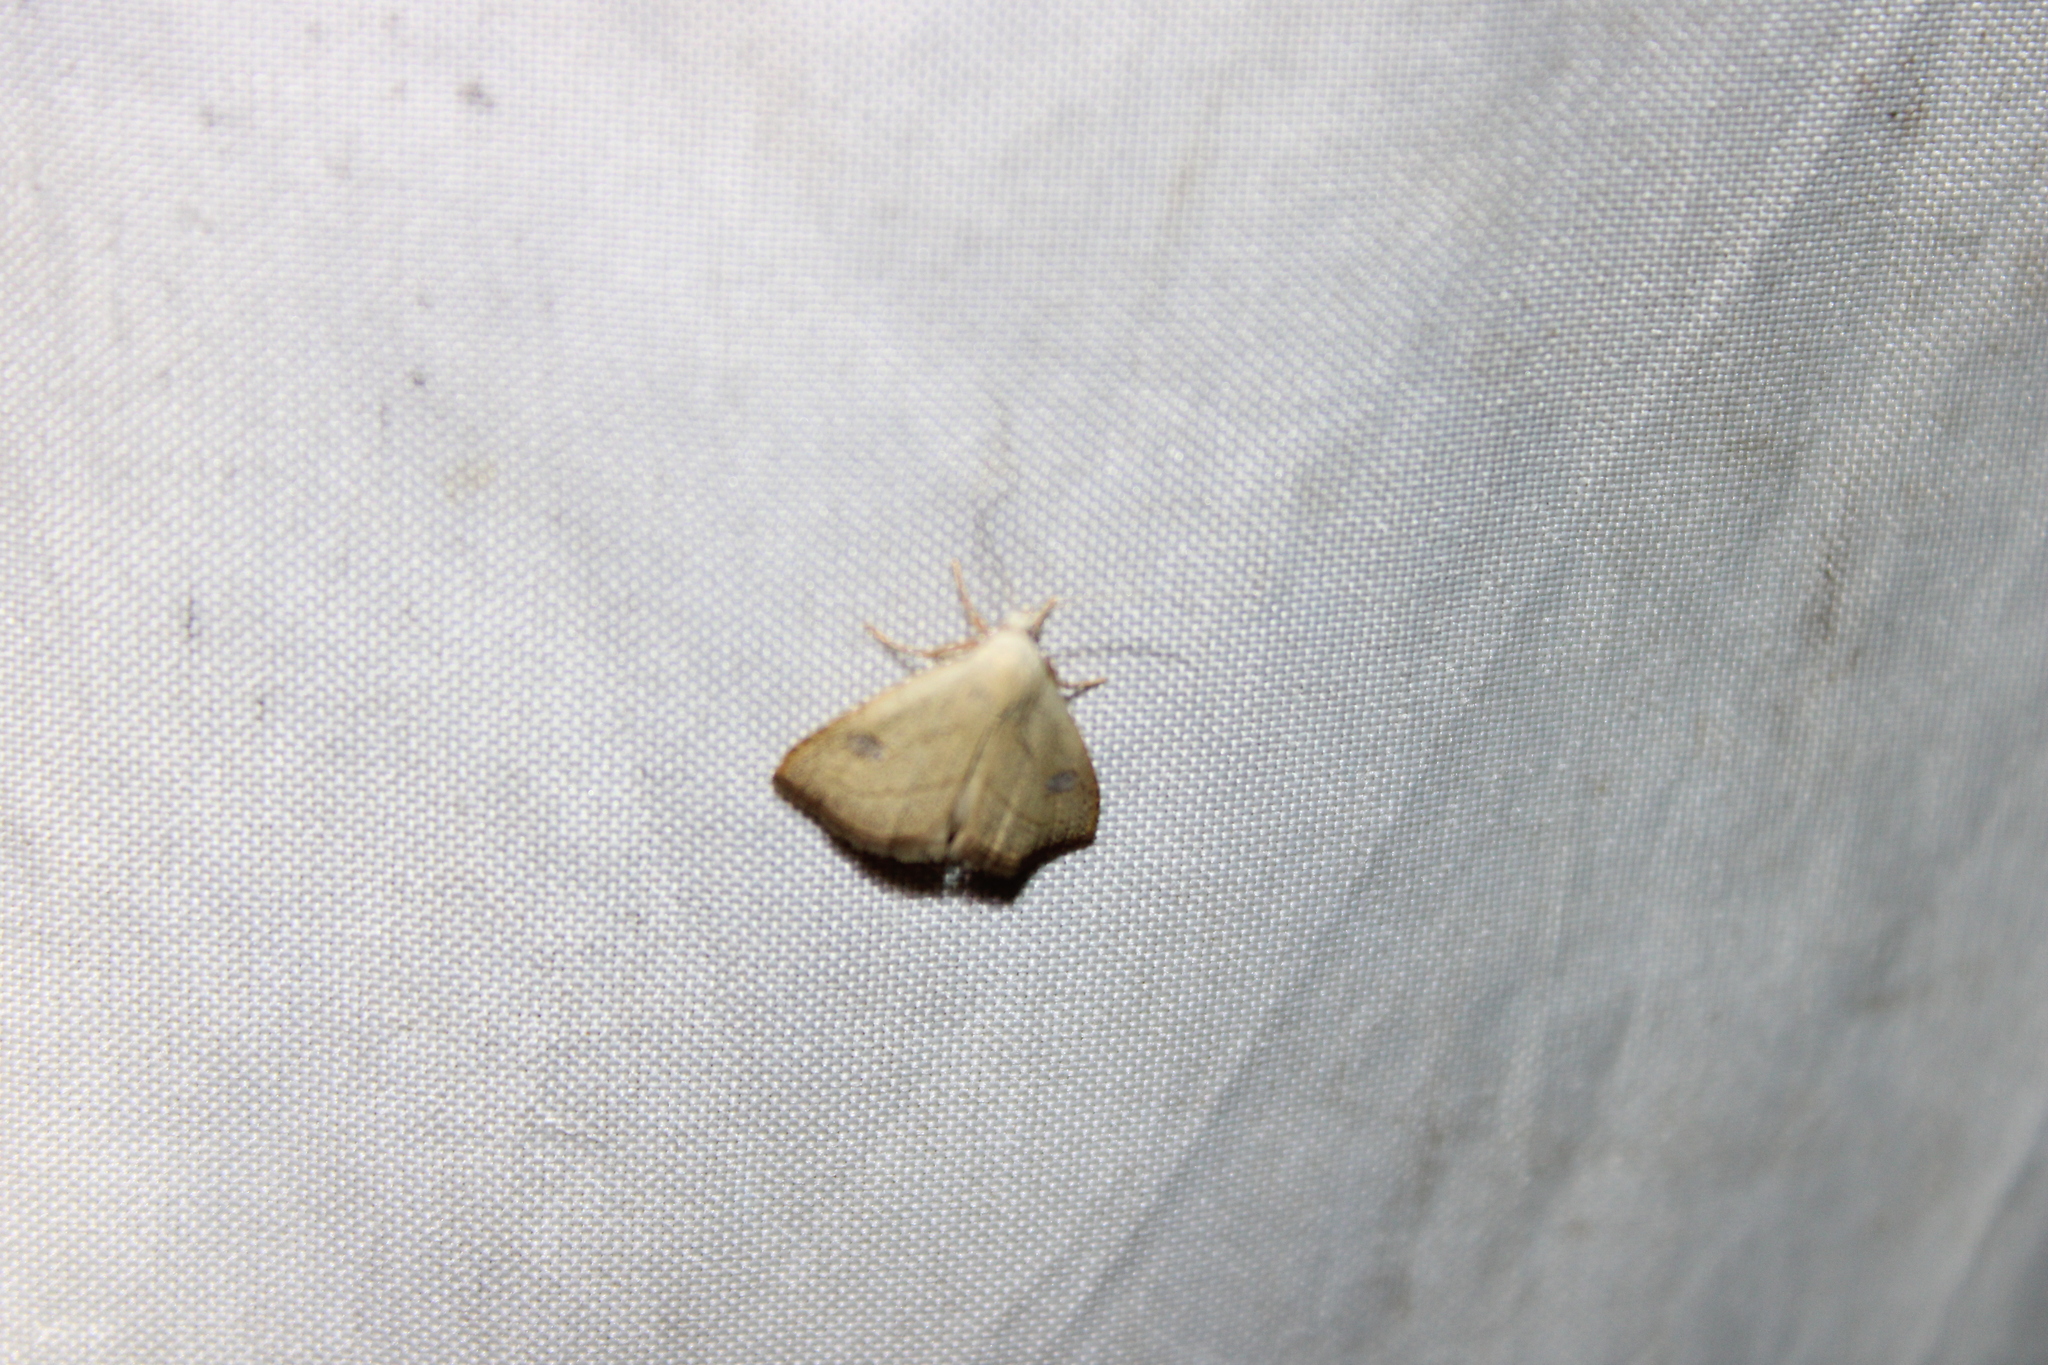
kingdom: Animalia
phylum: Arthropoda
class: Insecta
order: Lepidoptera
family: Erebidae
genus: Rivula
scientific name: Rivula propinqualis
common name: Spotted grass moth
